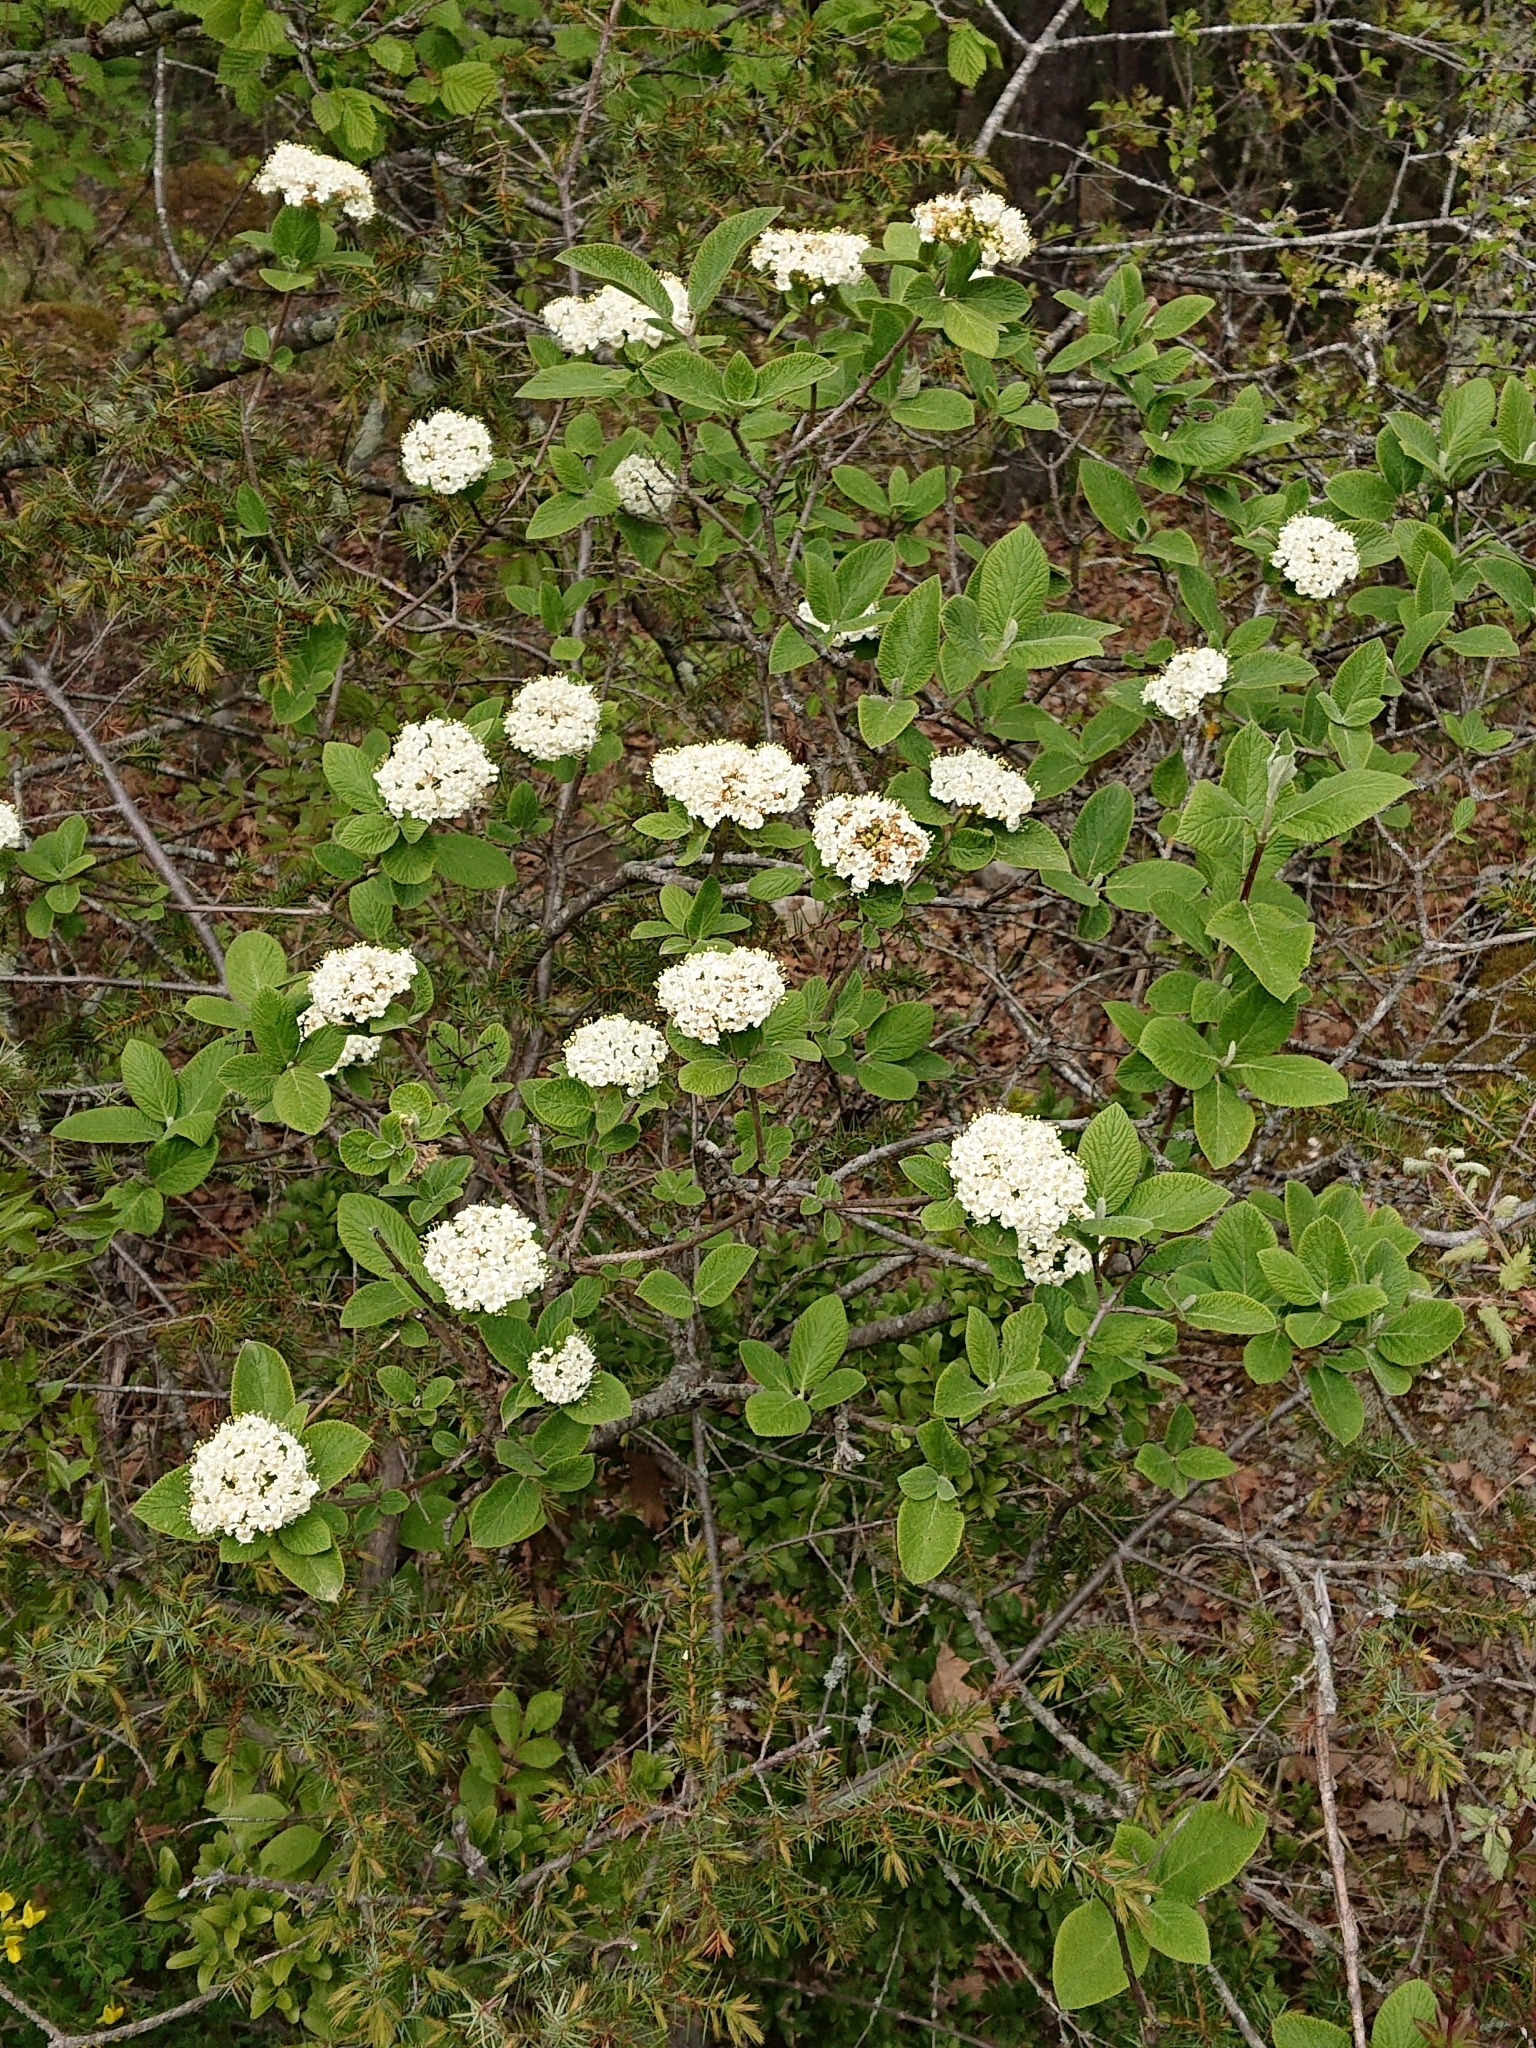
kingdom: Plantae
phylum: Tracheophyta
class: Magnoliopsida
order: Dipsacales
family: Viburnaceae
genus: Viburnum
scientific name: Viburnum lantana
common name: Wayfaring tree
